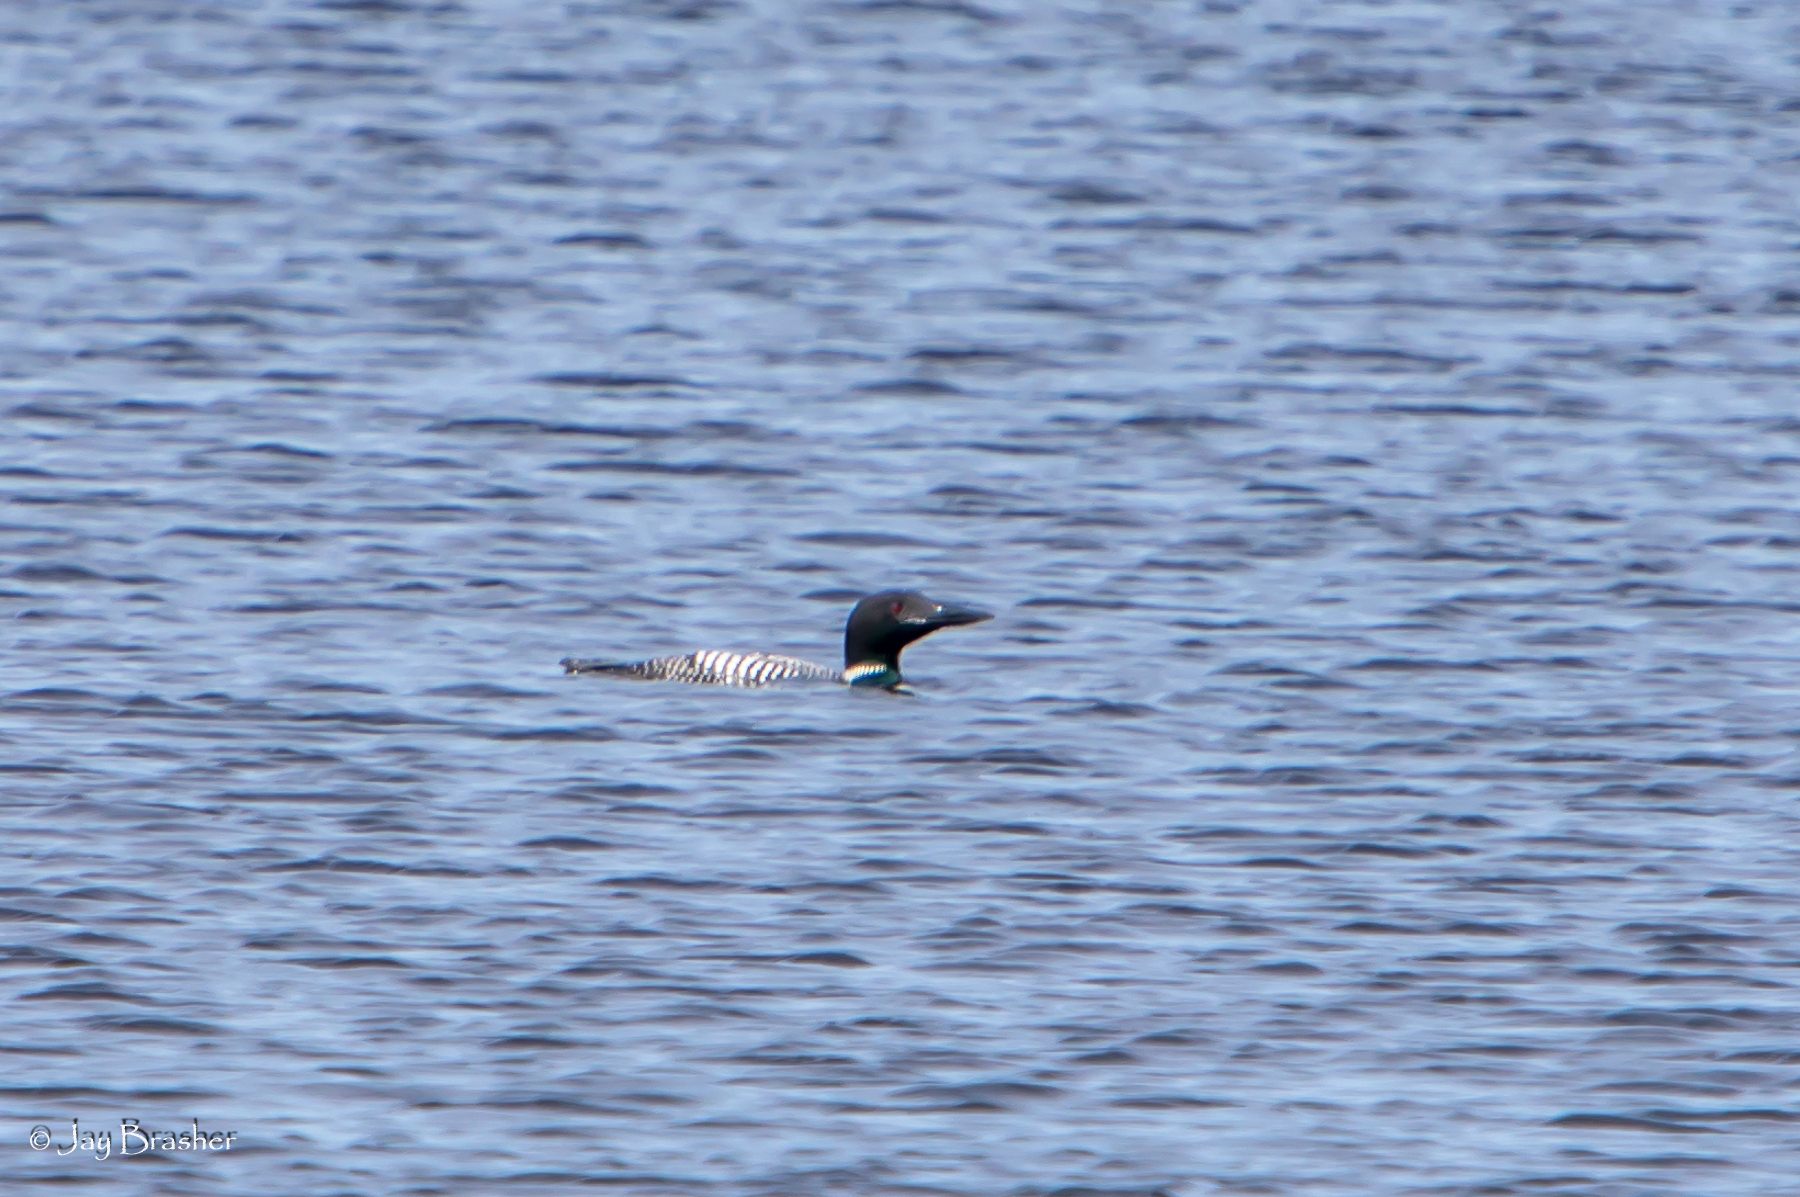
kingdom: Animalia
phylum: Chordata
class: Aves
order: Gaviiformes
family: Gaviidae
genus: Gavia
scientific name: Gavia immer
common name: Common loon
